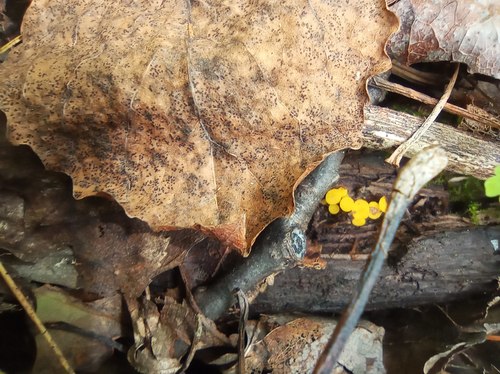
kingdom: Fungi
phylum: Ascomycota
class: Leotiomycetes
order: Helotiales
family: Pezizellaceae
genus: Calycina
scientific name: Calycina citrina
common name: Yellow fairy cups
